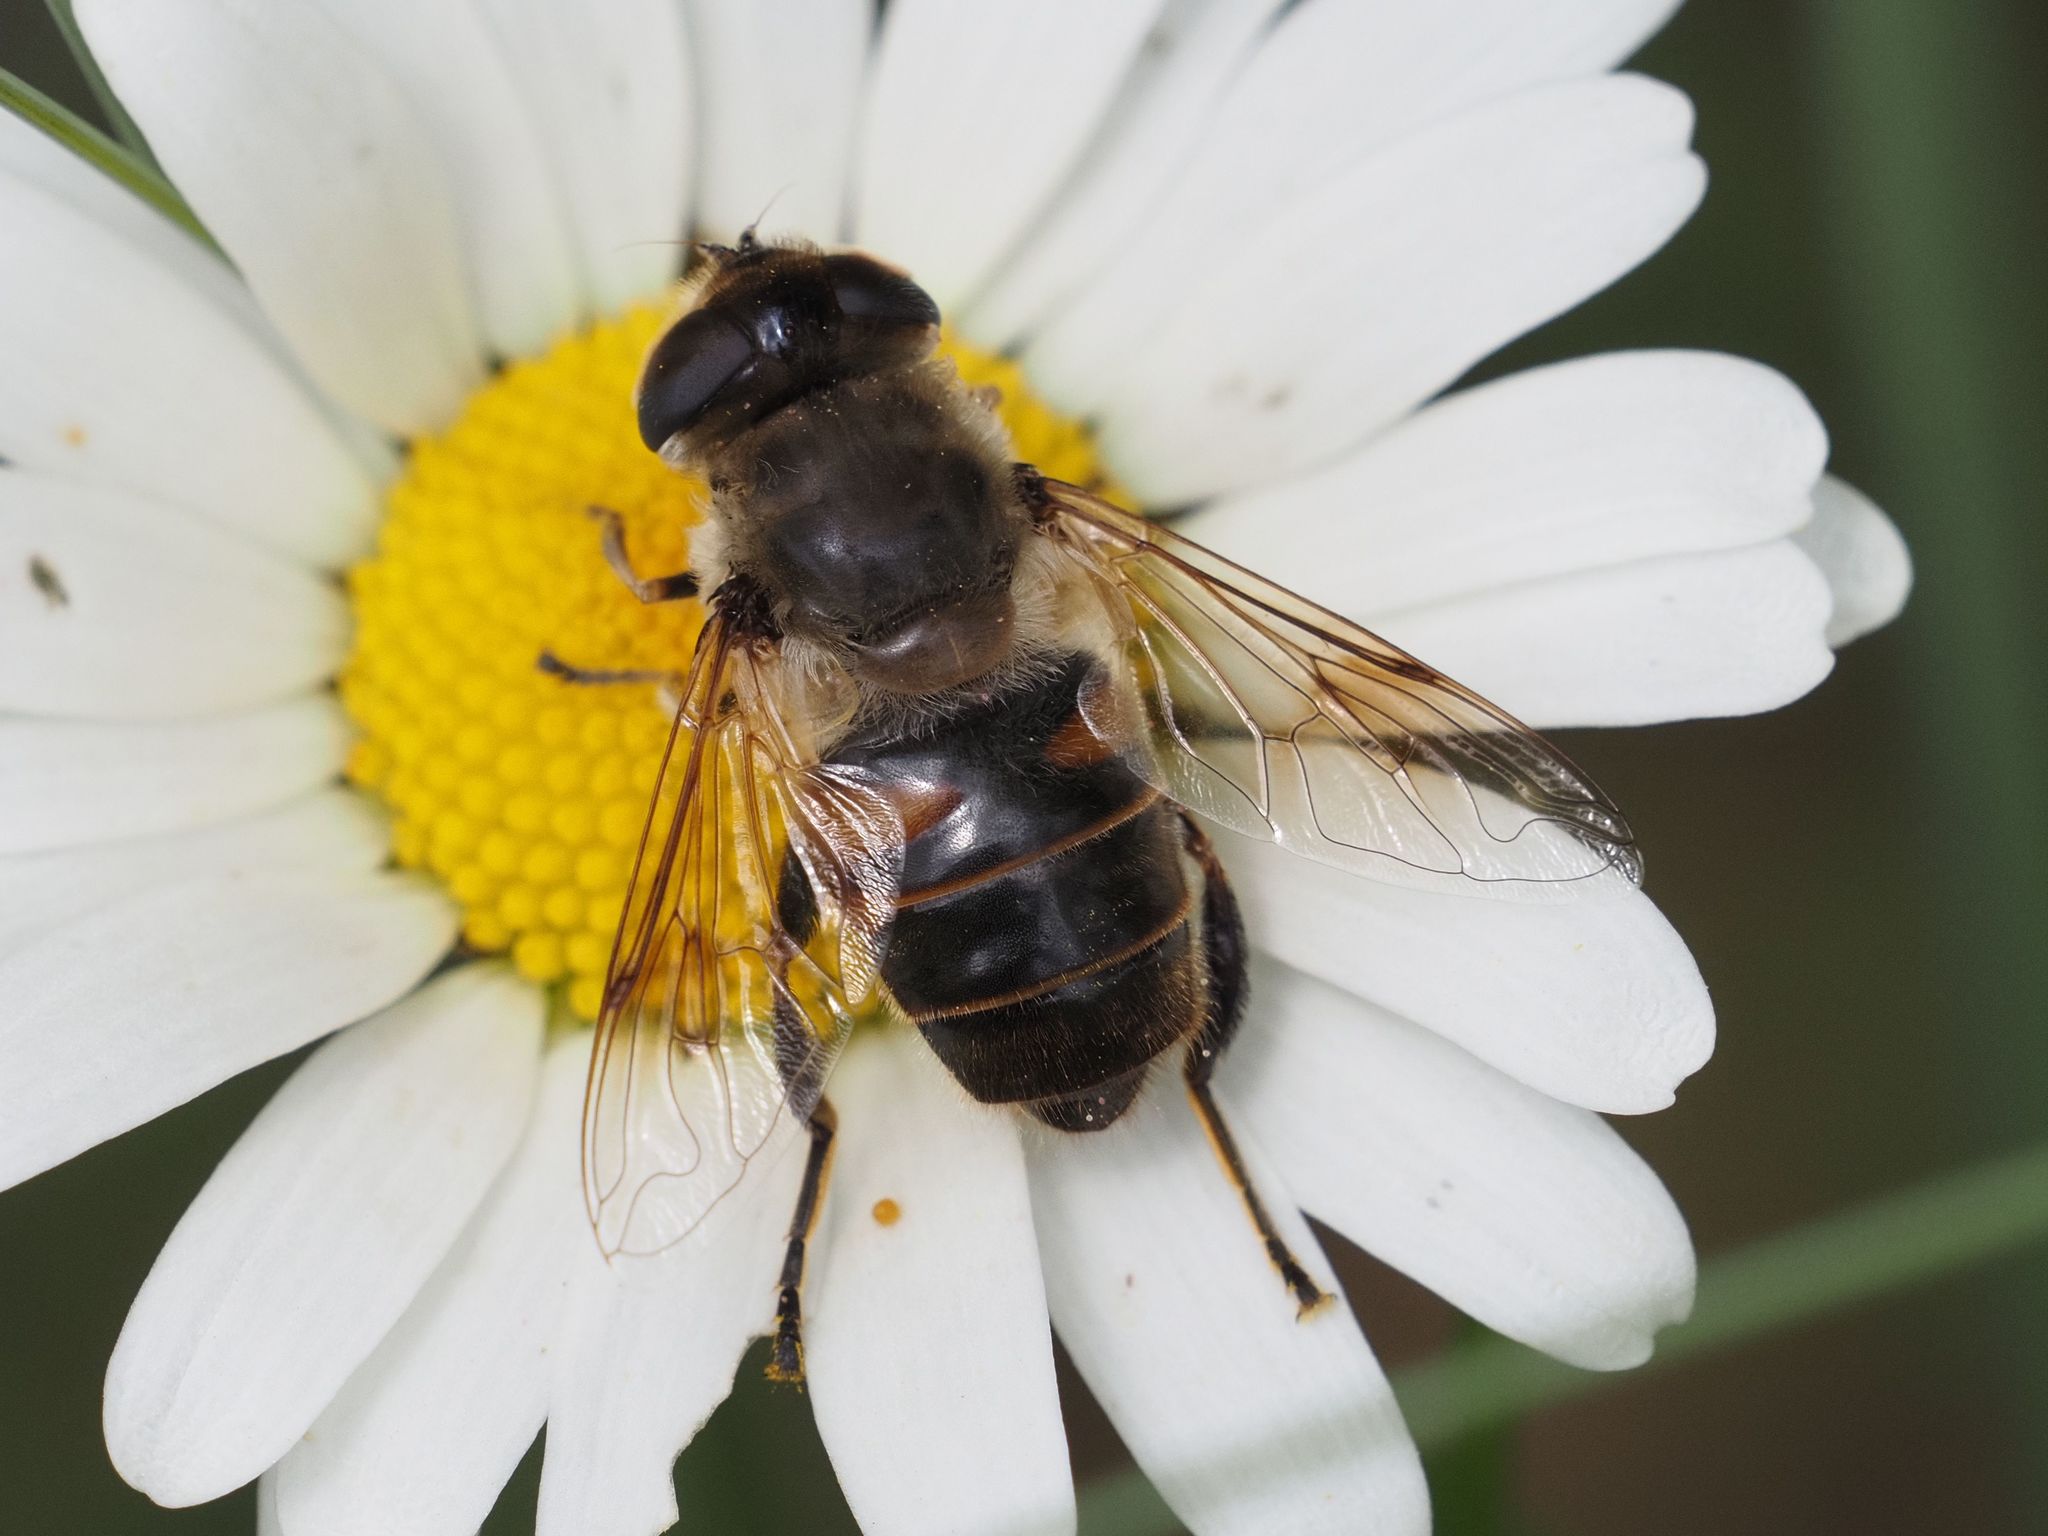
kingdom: Animalia
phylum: Arthropoda
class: Insecta
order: Diptera
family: Syrphidae
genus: Eristalis
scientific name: Eristalis tenax
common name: Drone fly
